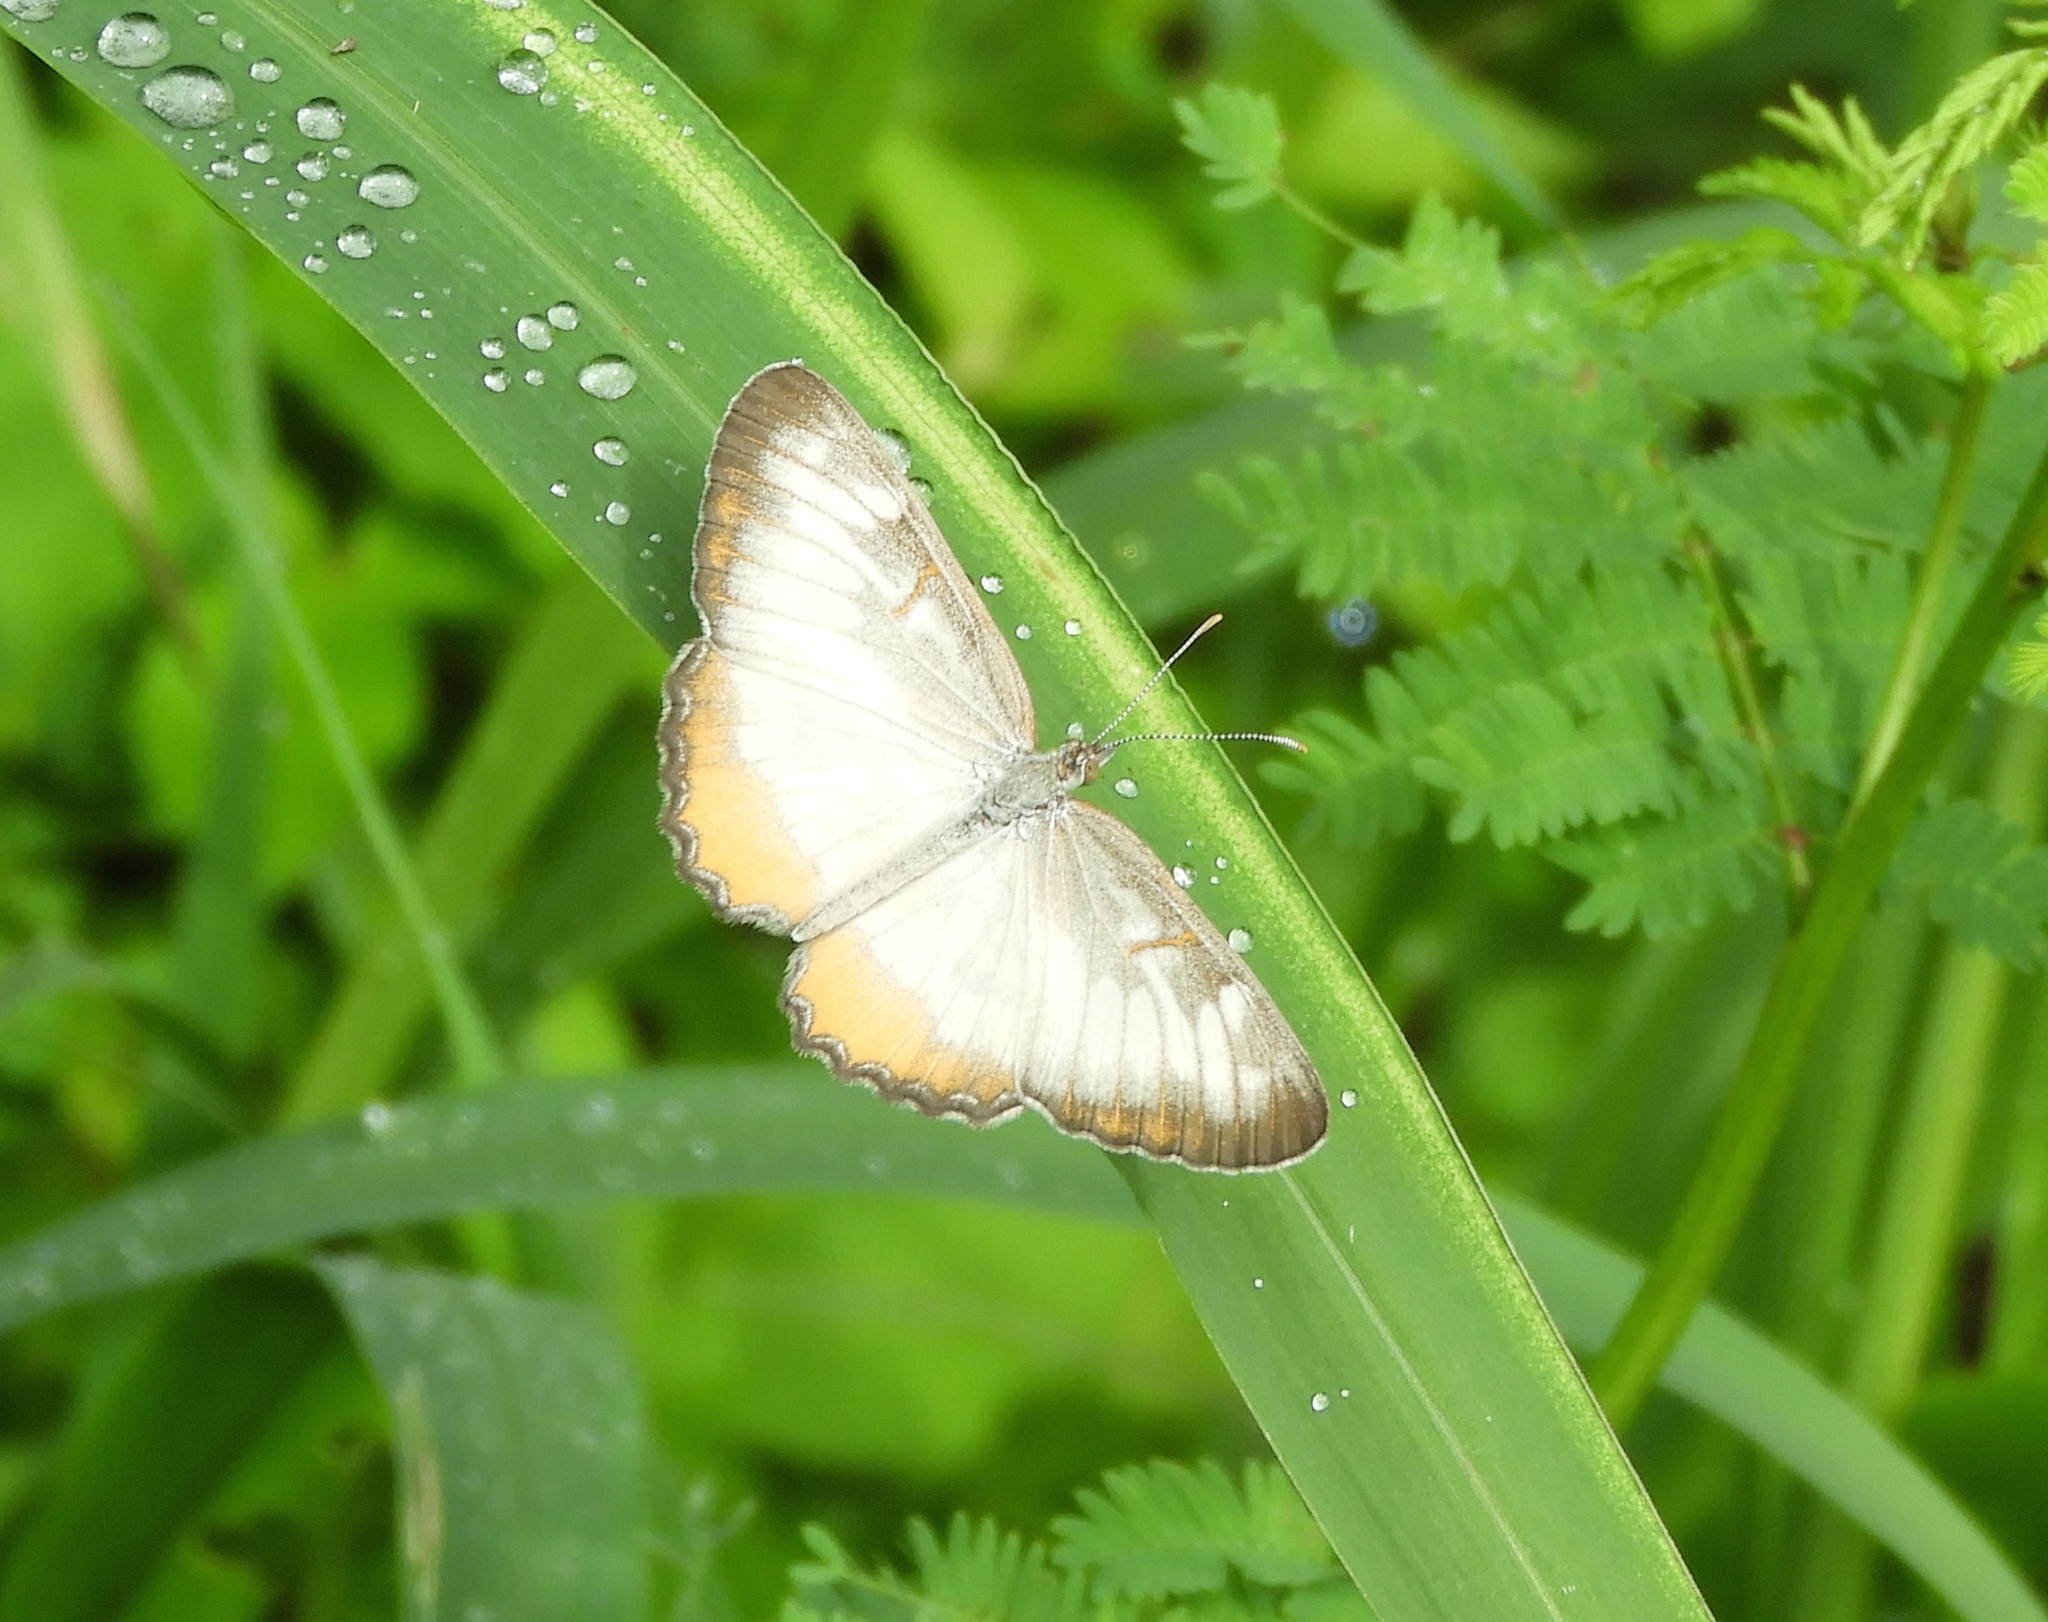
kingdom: Animalia
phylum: Arthropoda
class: Insecta
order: Lepidoptera
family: Nymphalidae
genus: Mestra
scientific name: Mestra amymone
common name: Common mestra
